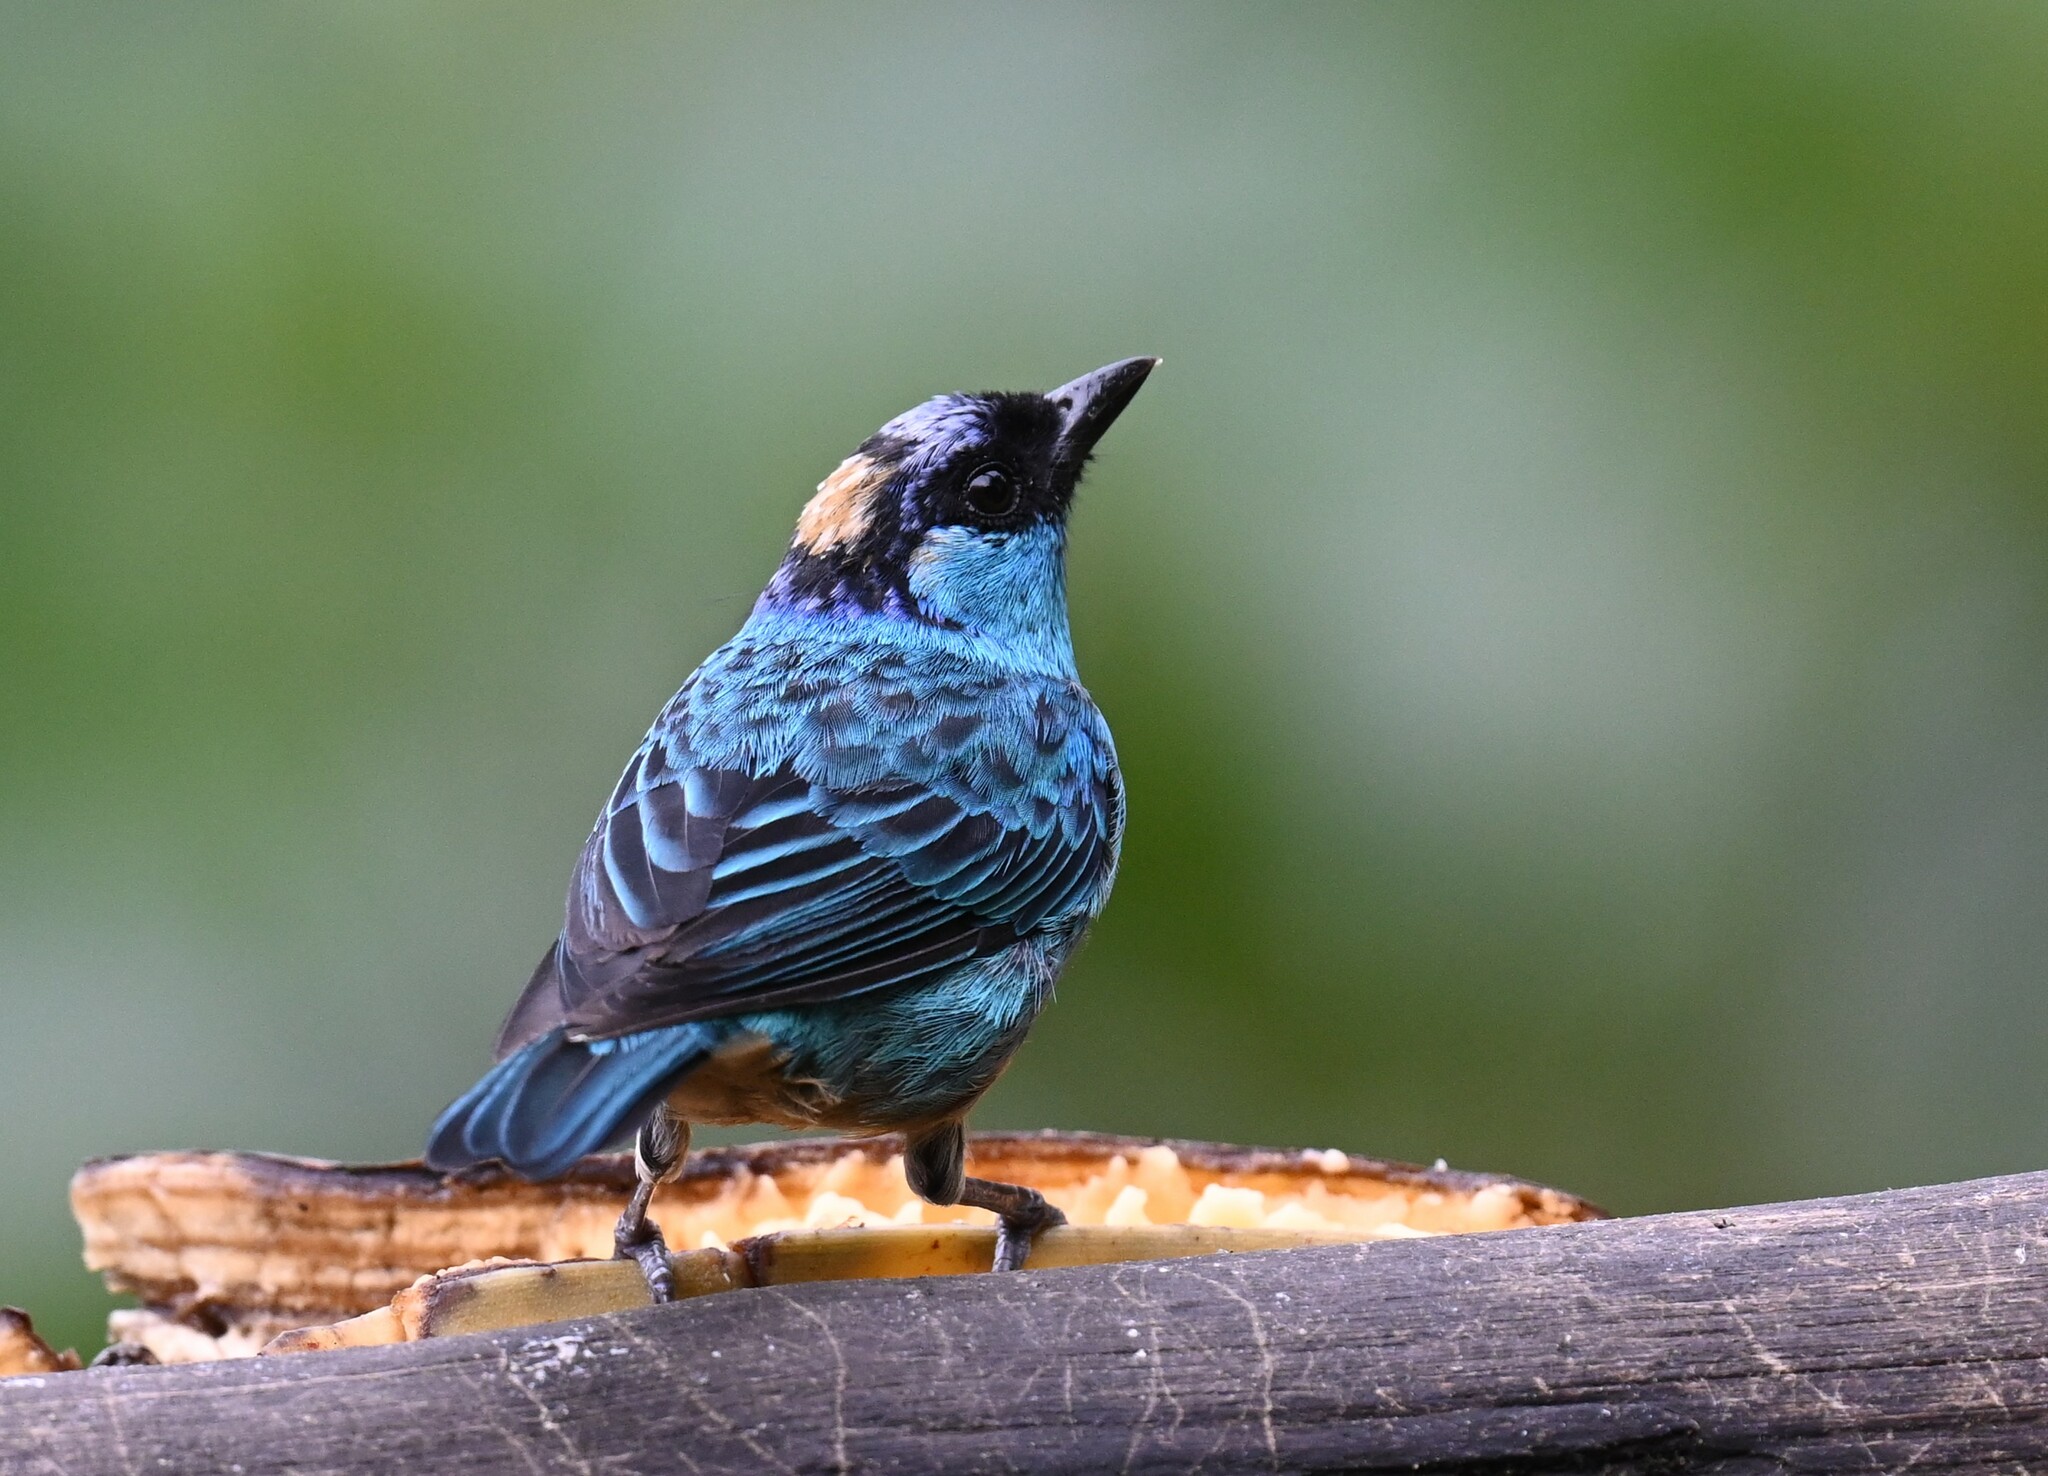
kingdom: Animalia
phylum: Chordata
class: Aves
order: Passeriformes
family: Thraupidae
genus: Chalcothraupis
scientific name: Chalcothraupis ruficervix
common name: Golden-naped tanager
